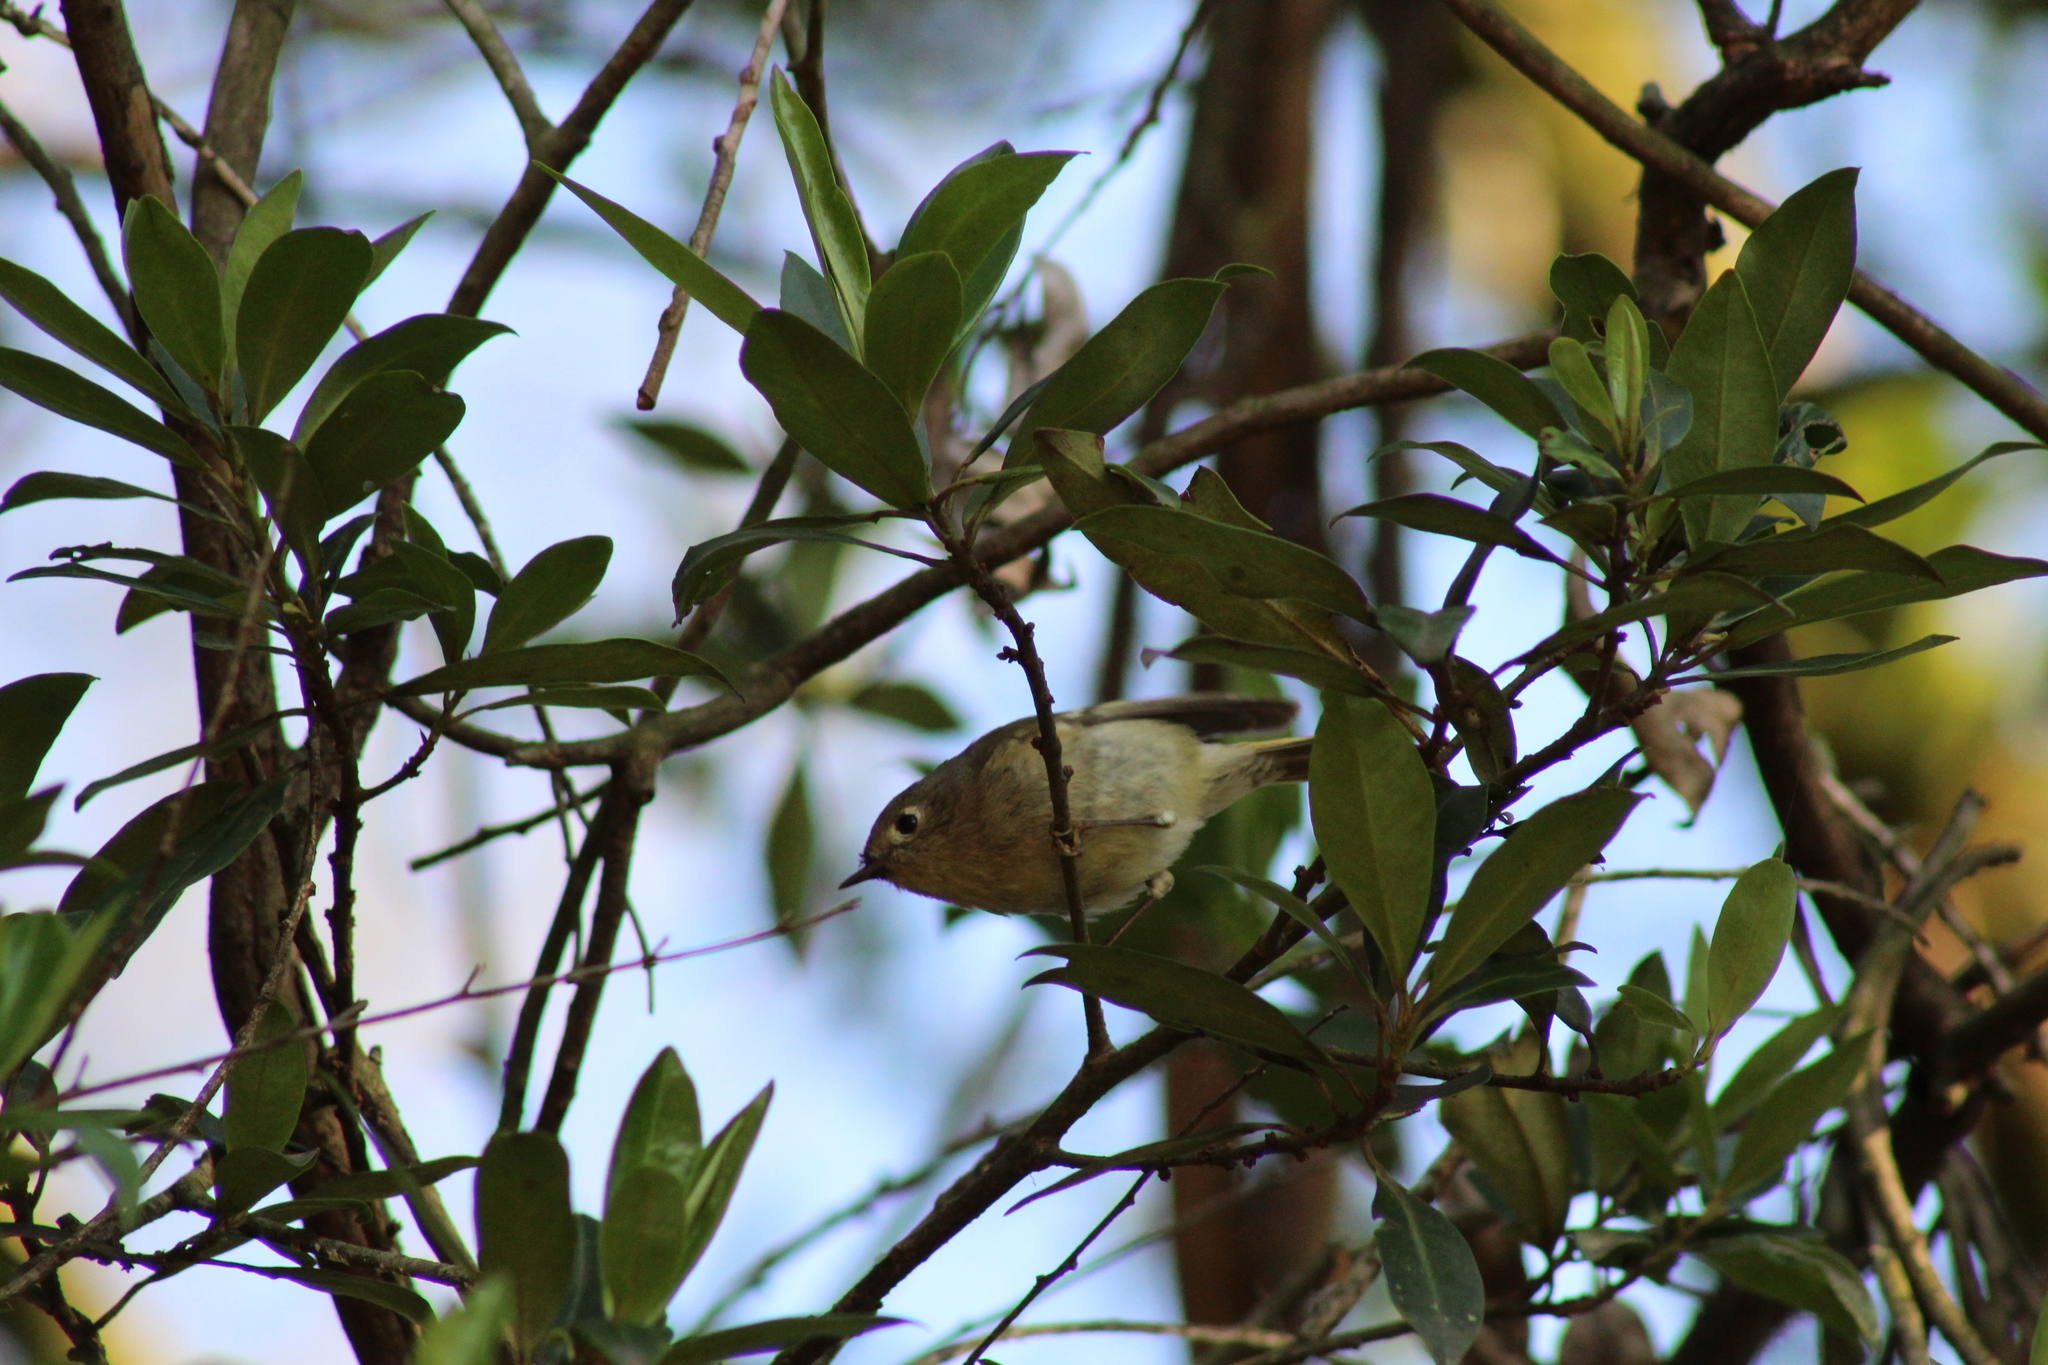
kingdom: Animalia
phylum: Chordata
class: Aves
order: Passeriformes
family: Regulidae
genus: Regulus
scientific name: Regulus calendula
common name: Ruby-crowned kinglet
